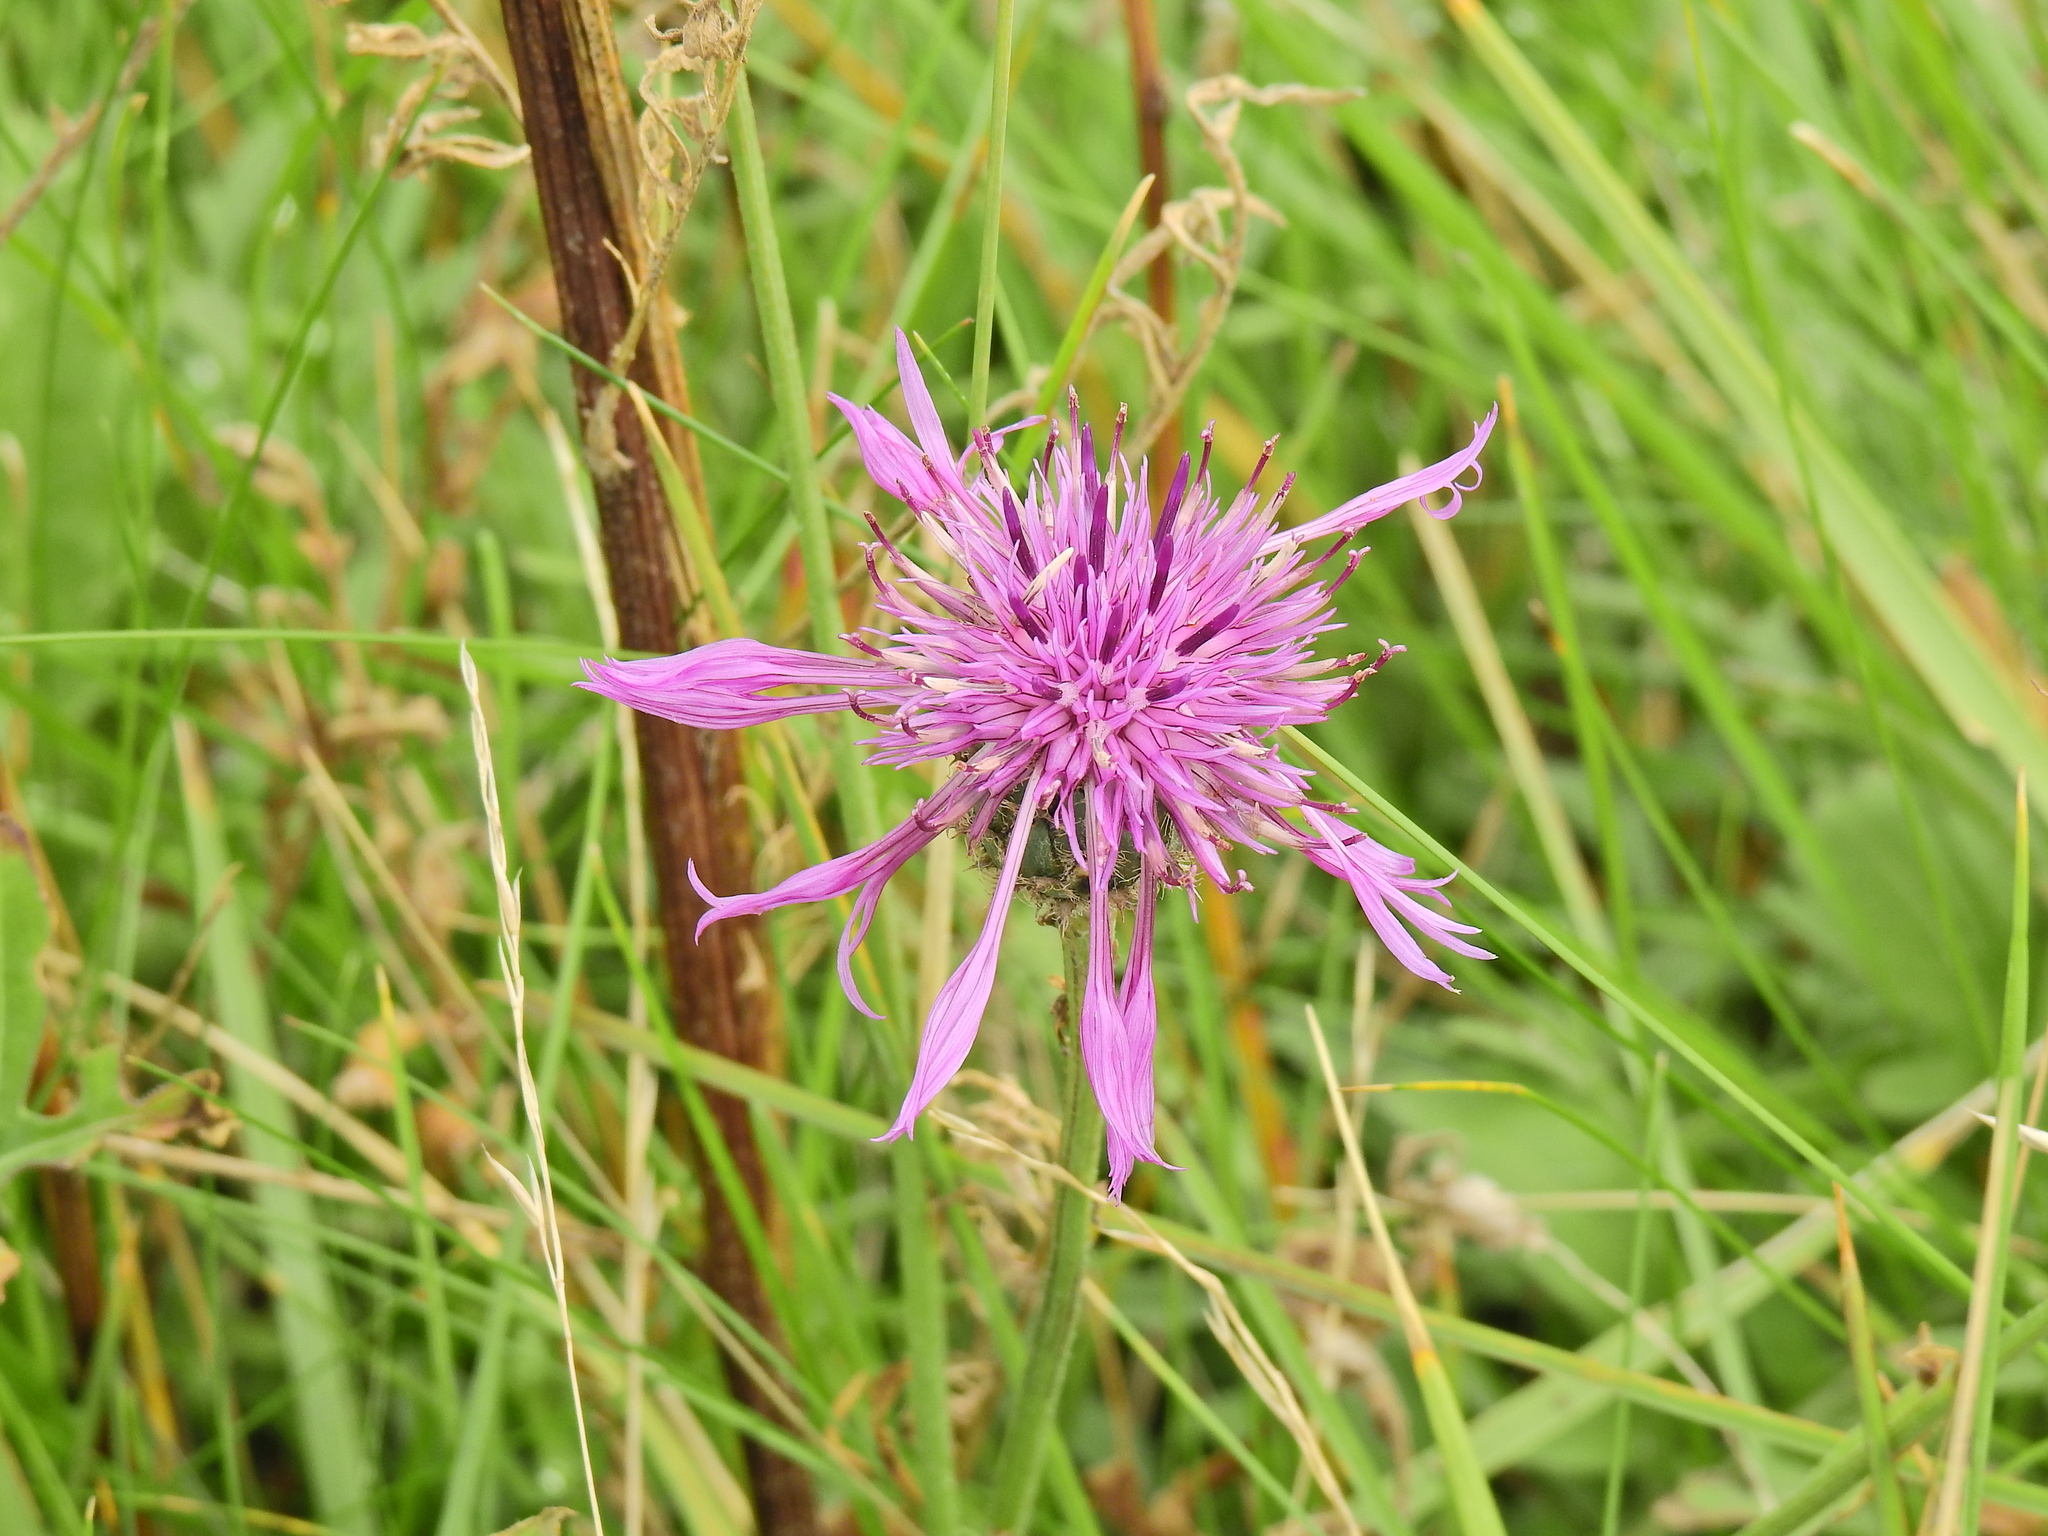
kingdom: Plantae
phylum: Tracheophyta
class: Magnoliopsida
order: Asterales
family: Asteraceae
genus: Centaurea
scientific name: Centaurea scabiosa
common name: Greater knapweed
